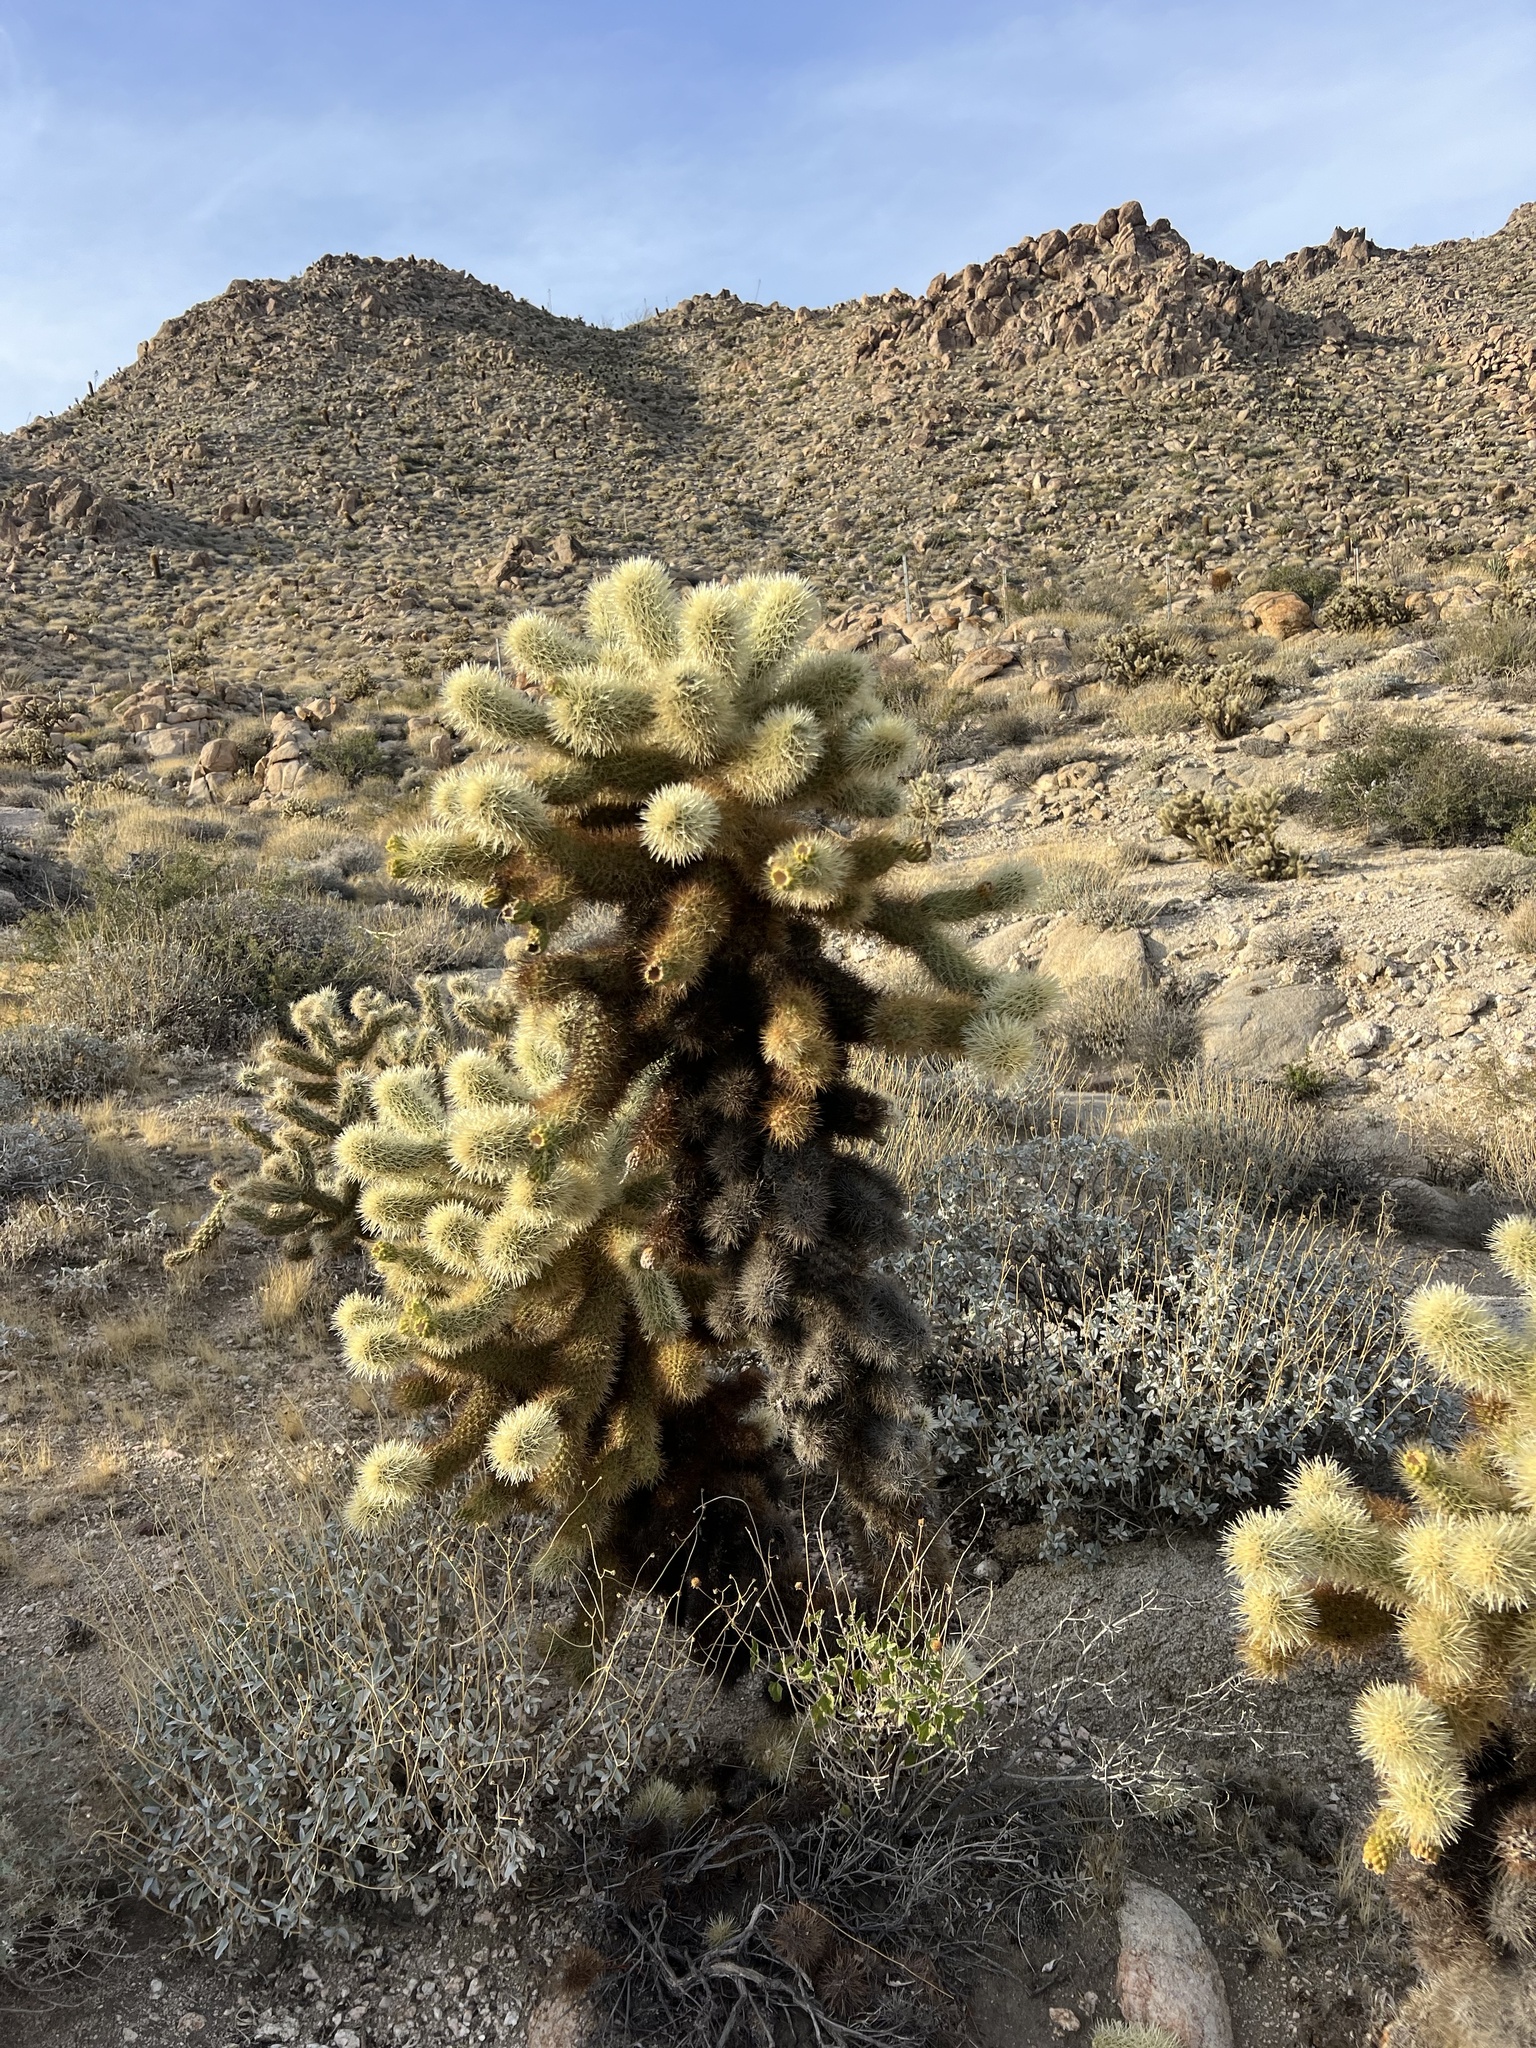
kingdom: Plantae
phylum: Tracheophyta
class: Magnoliopsida
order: Caryophyllales
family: Cactaceae
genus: Cylindropuntia
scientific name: Cylindropuntia fosbergii
